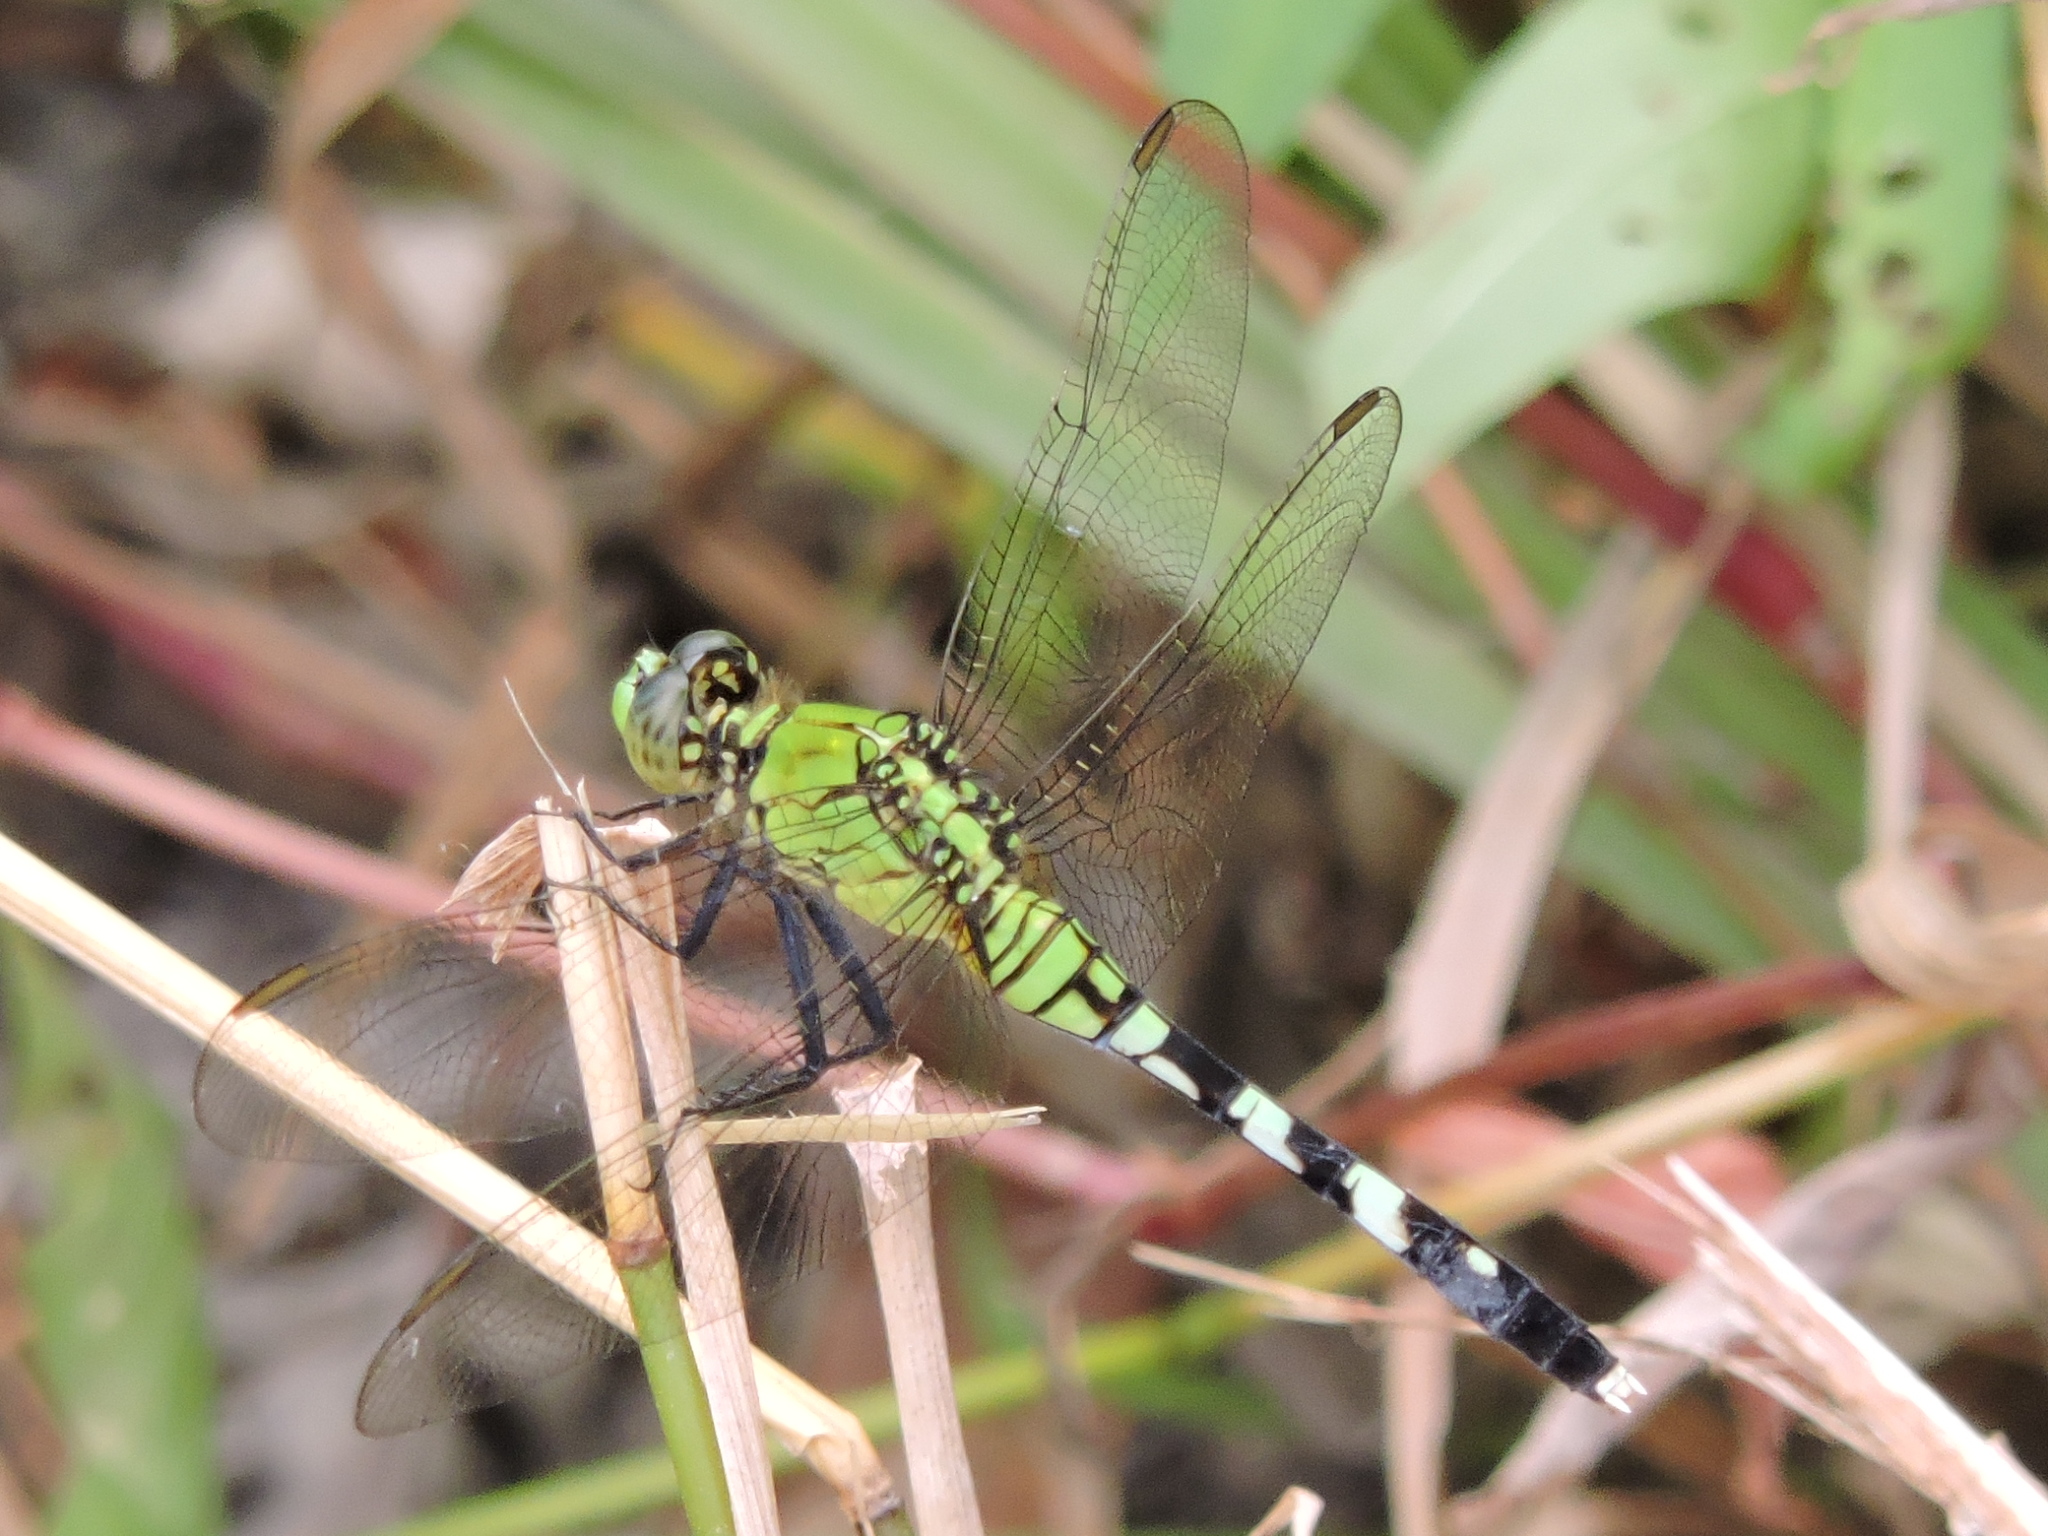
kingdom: Animalia
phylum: Arthropoda
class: Insecta
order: Odonata
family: Libellulidae
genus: Erythemis
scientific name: Erythemis simplicicollis
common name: Eastern pondhawk
